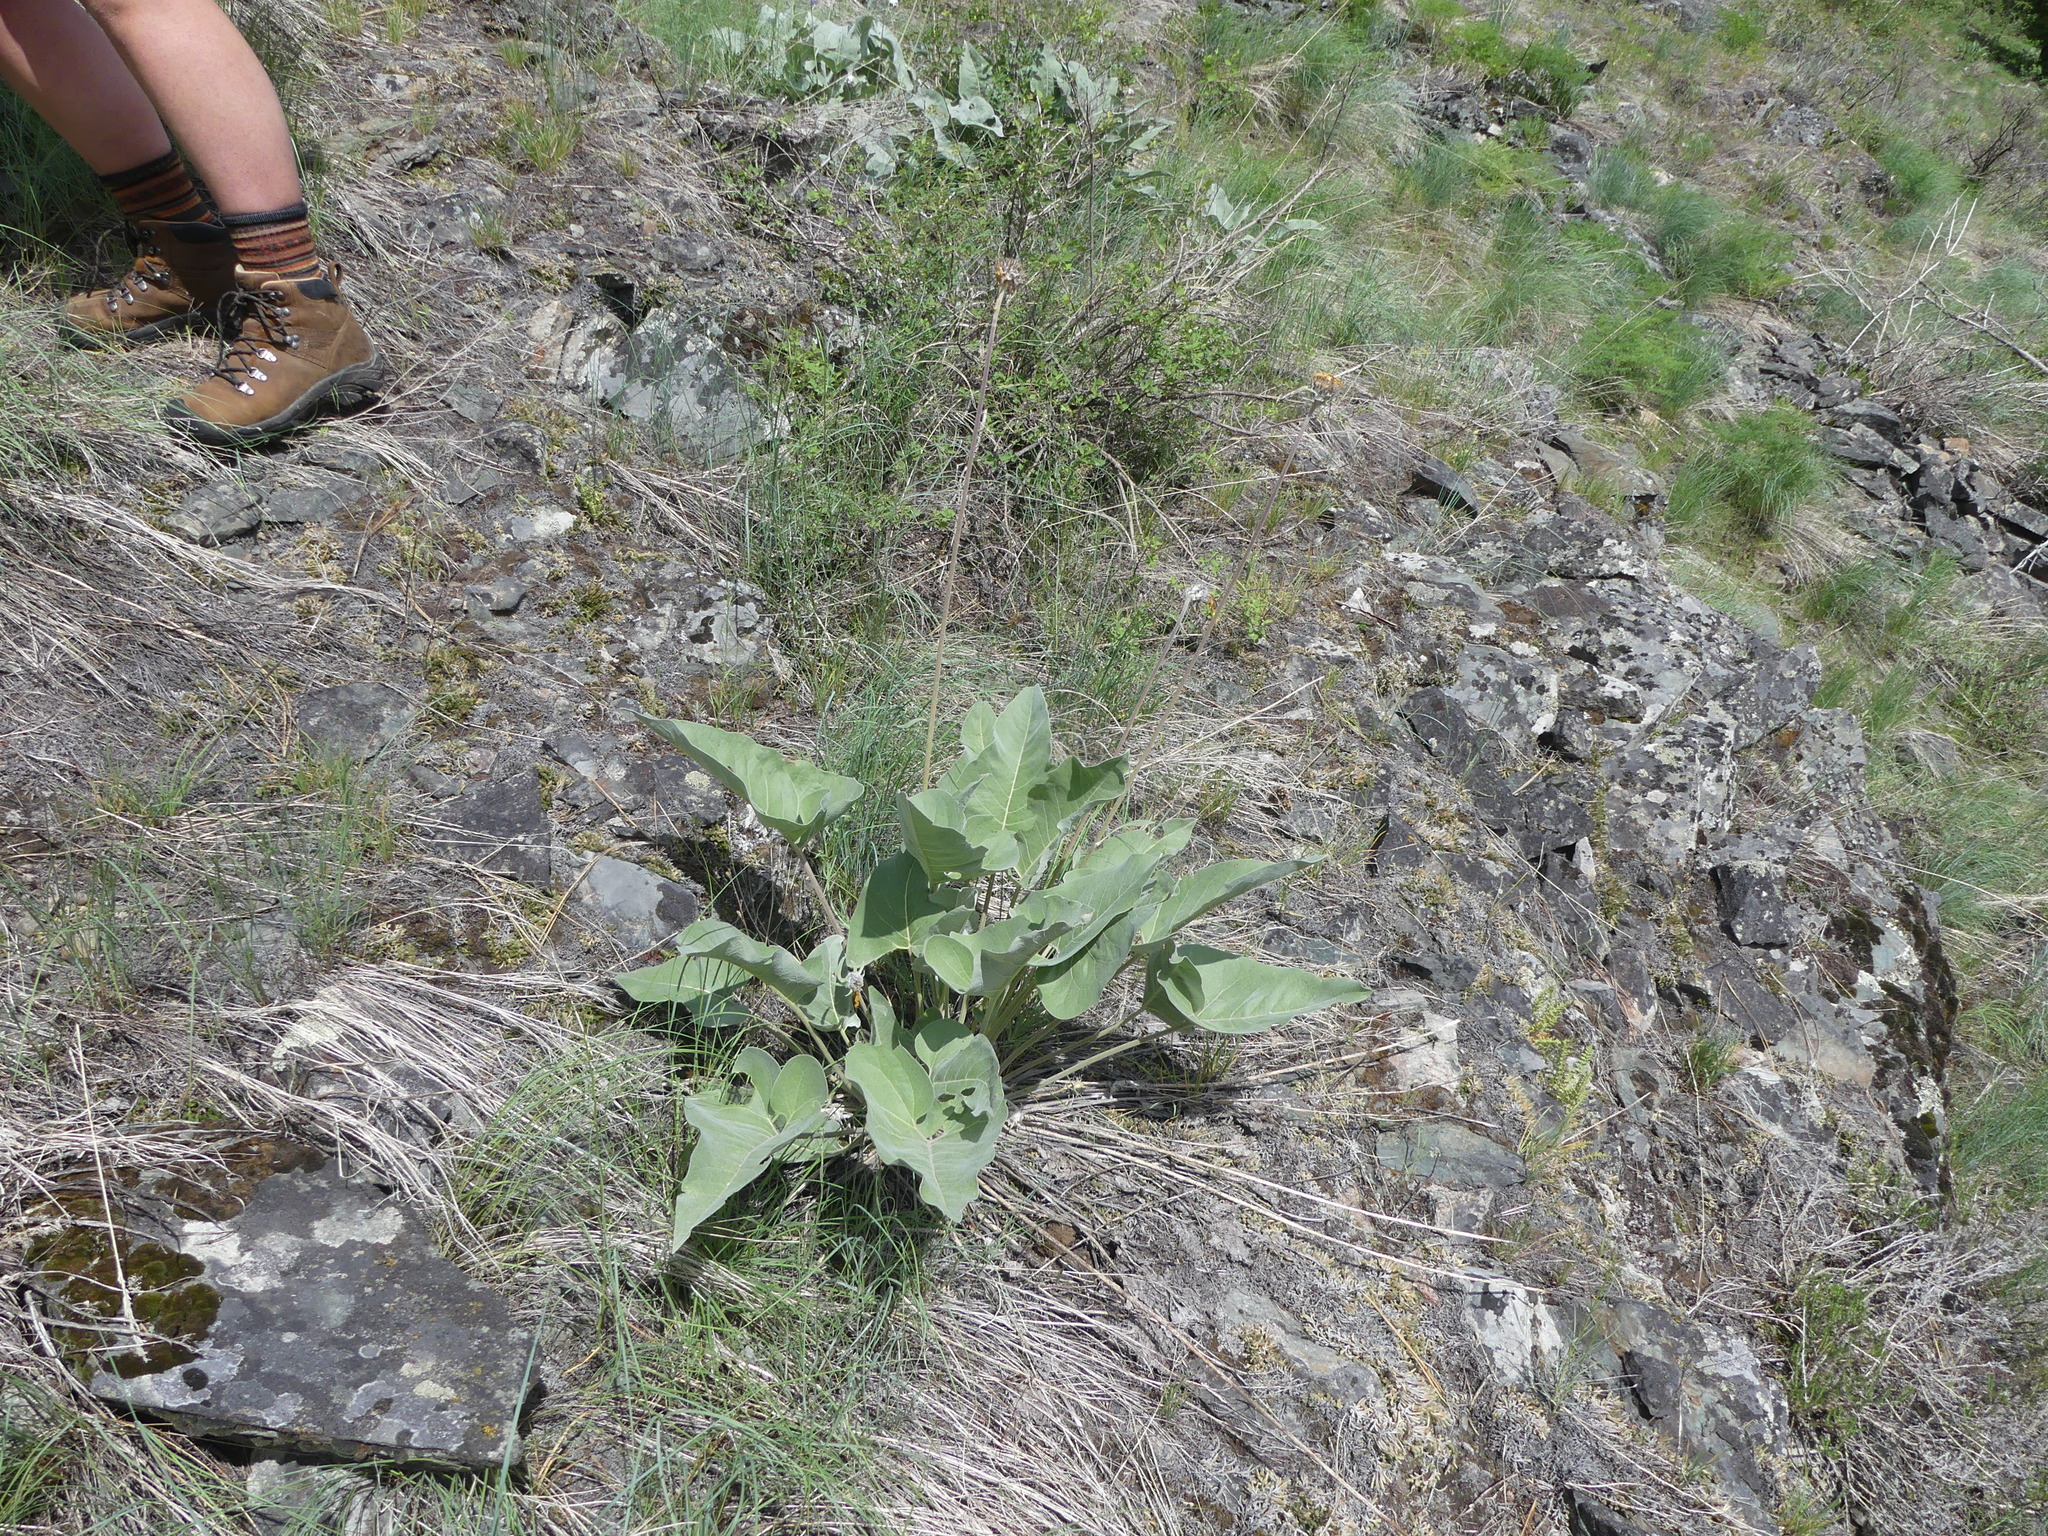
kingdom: Plantae
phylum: Tracheophyta
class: Magnoliopsida
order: Asterales
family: Asteraceae
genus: Wyethia
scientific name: Wyethia sagittata
